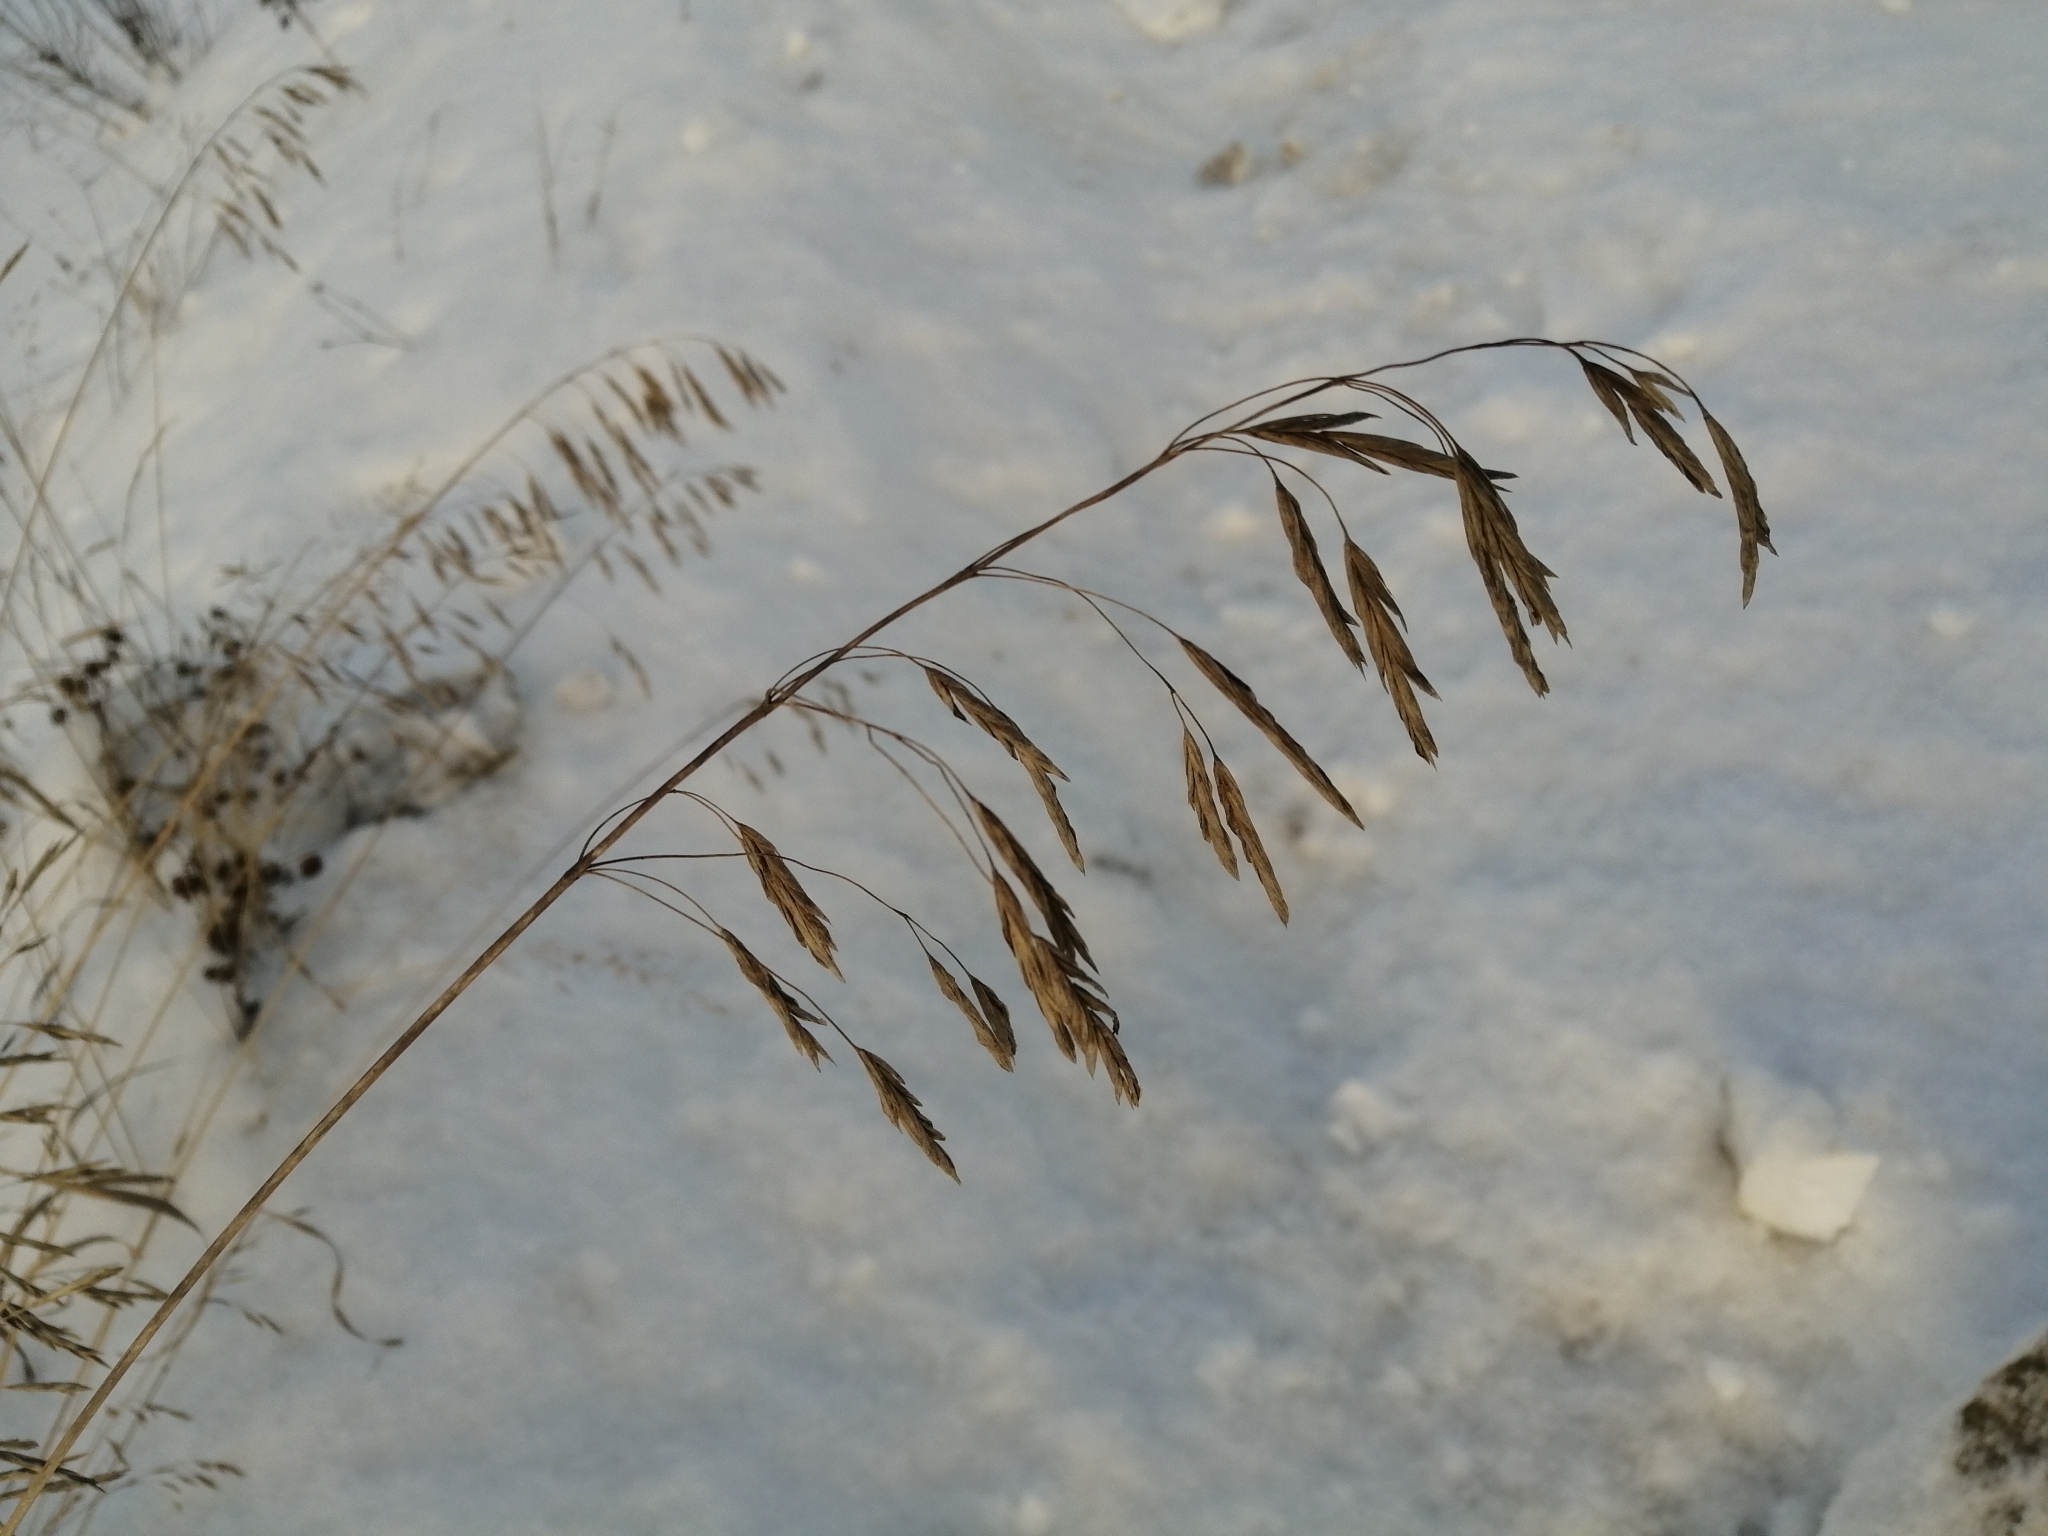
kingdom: Plantae
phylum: Tracheophyta
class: Liliopsida
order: Poales
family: Poaceae
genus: Bromus
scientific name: Bromus inermis
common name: Smooth brome
